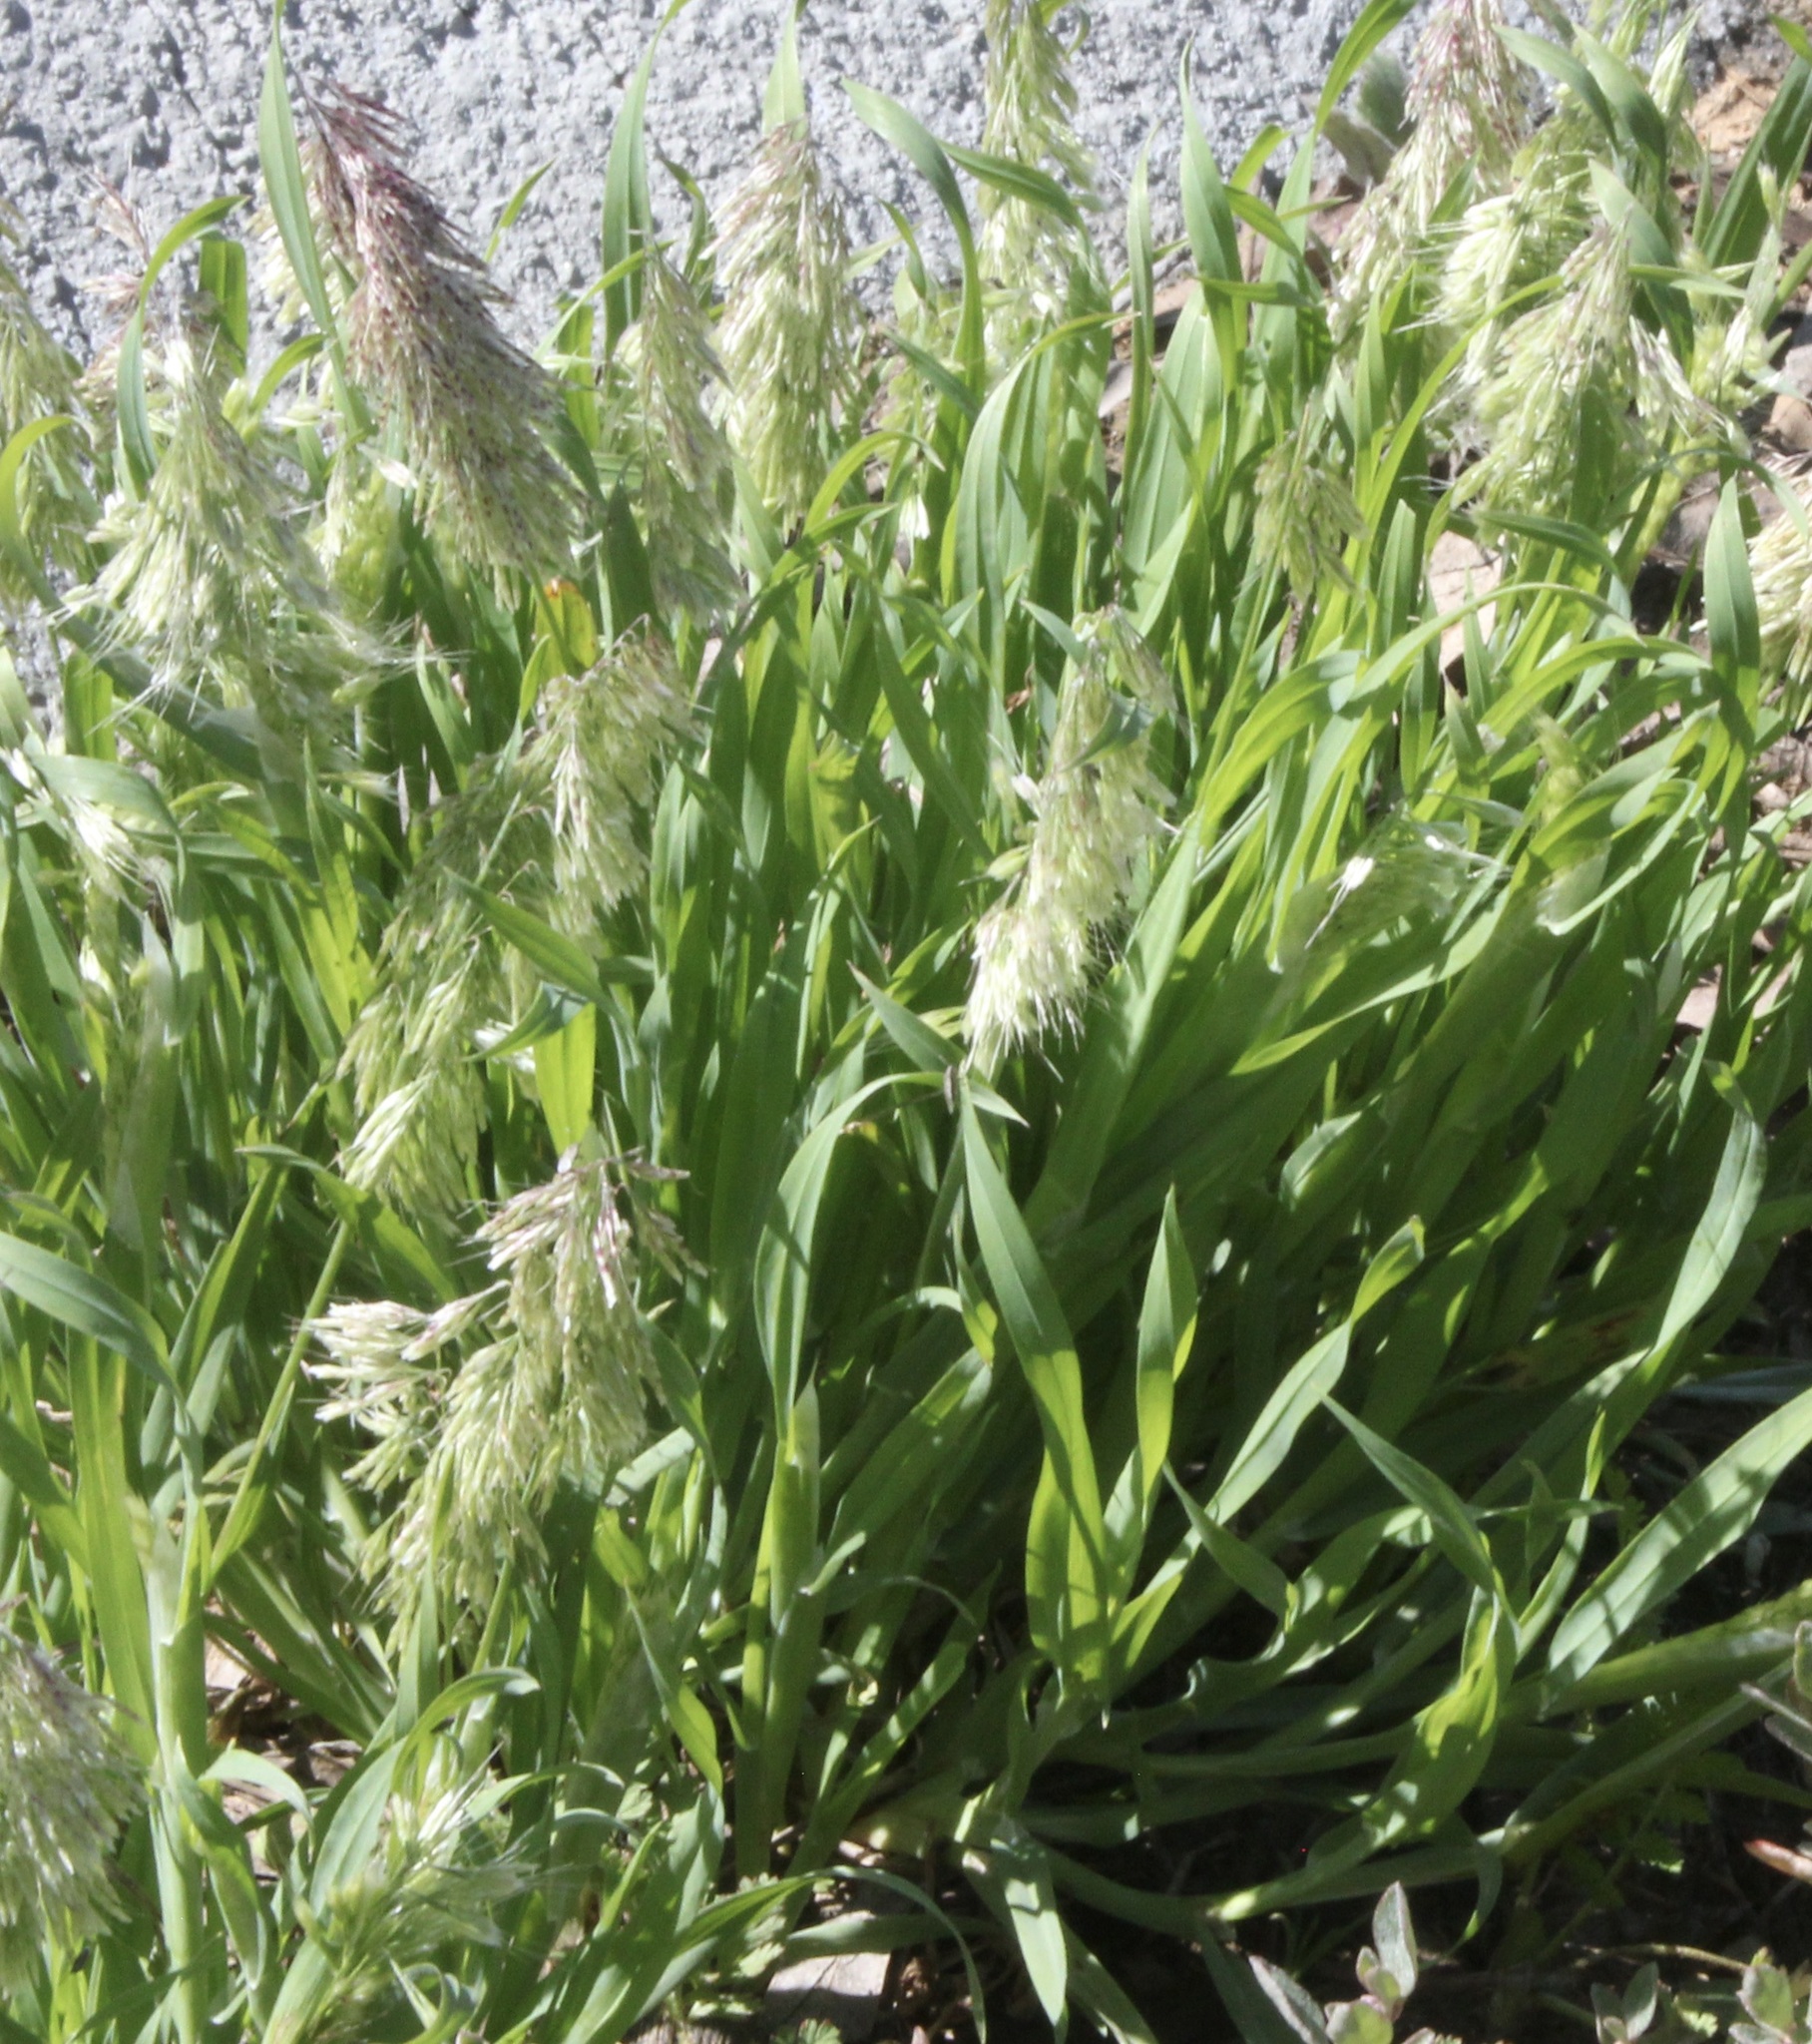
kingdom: Plantae
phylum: Tracheophyta
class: Liliopsida
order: Poales
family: Poaceae
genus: Lamarckia
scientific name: Lamarckia aurea
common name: Golden dog's-tail
